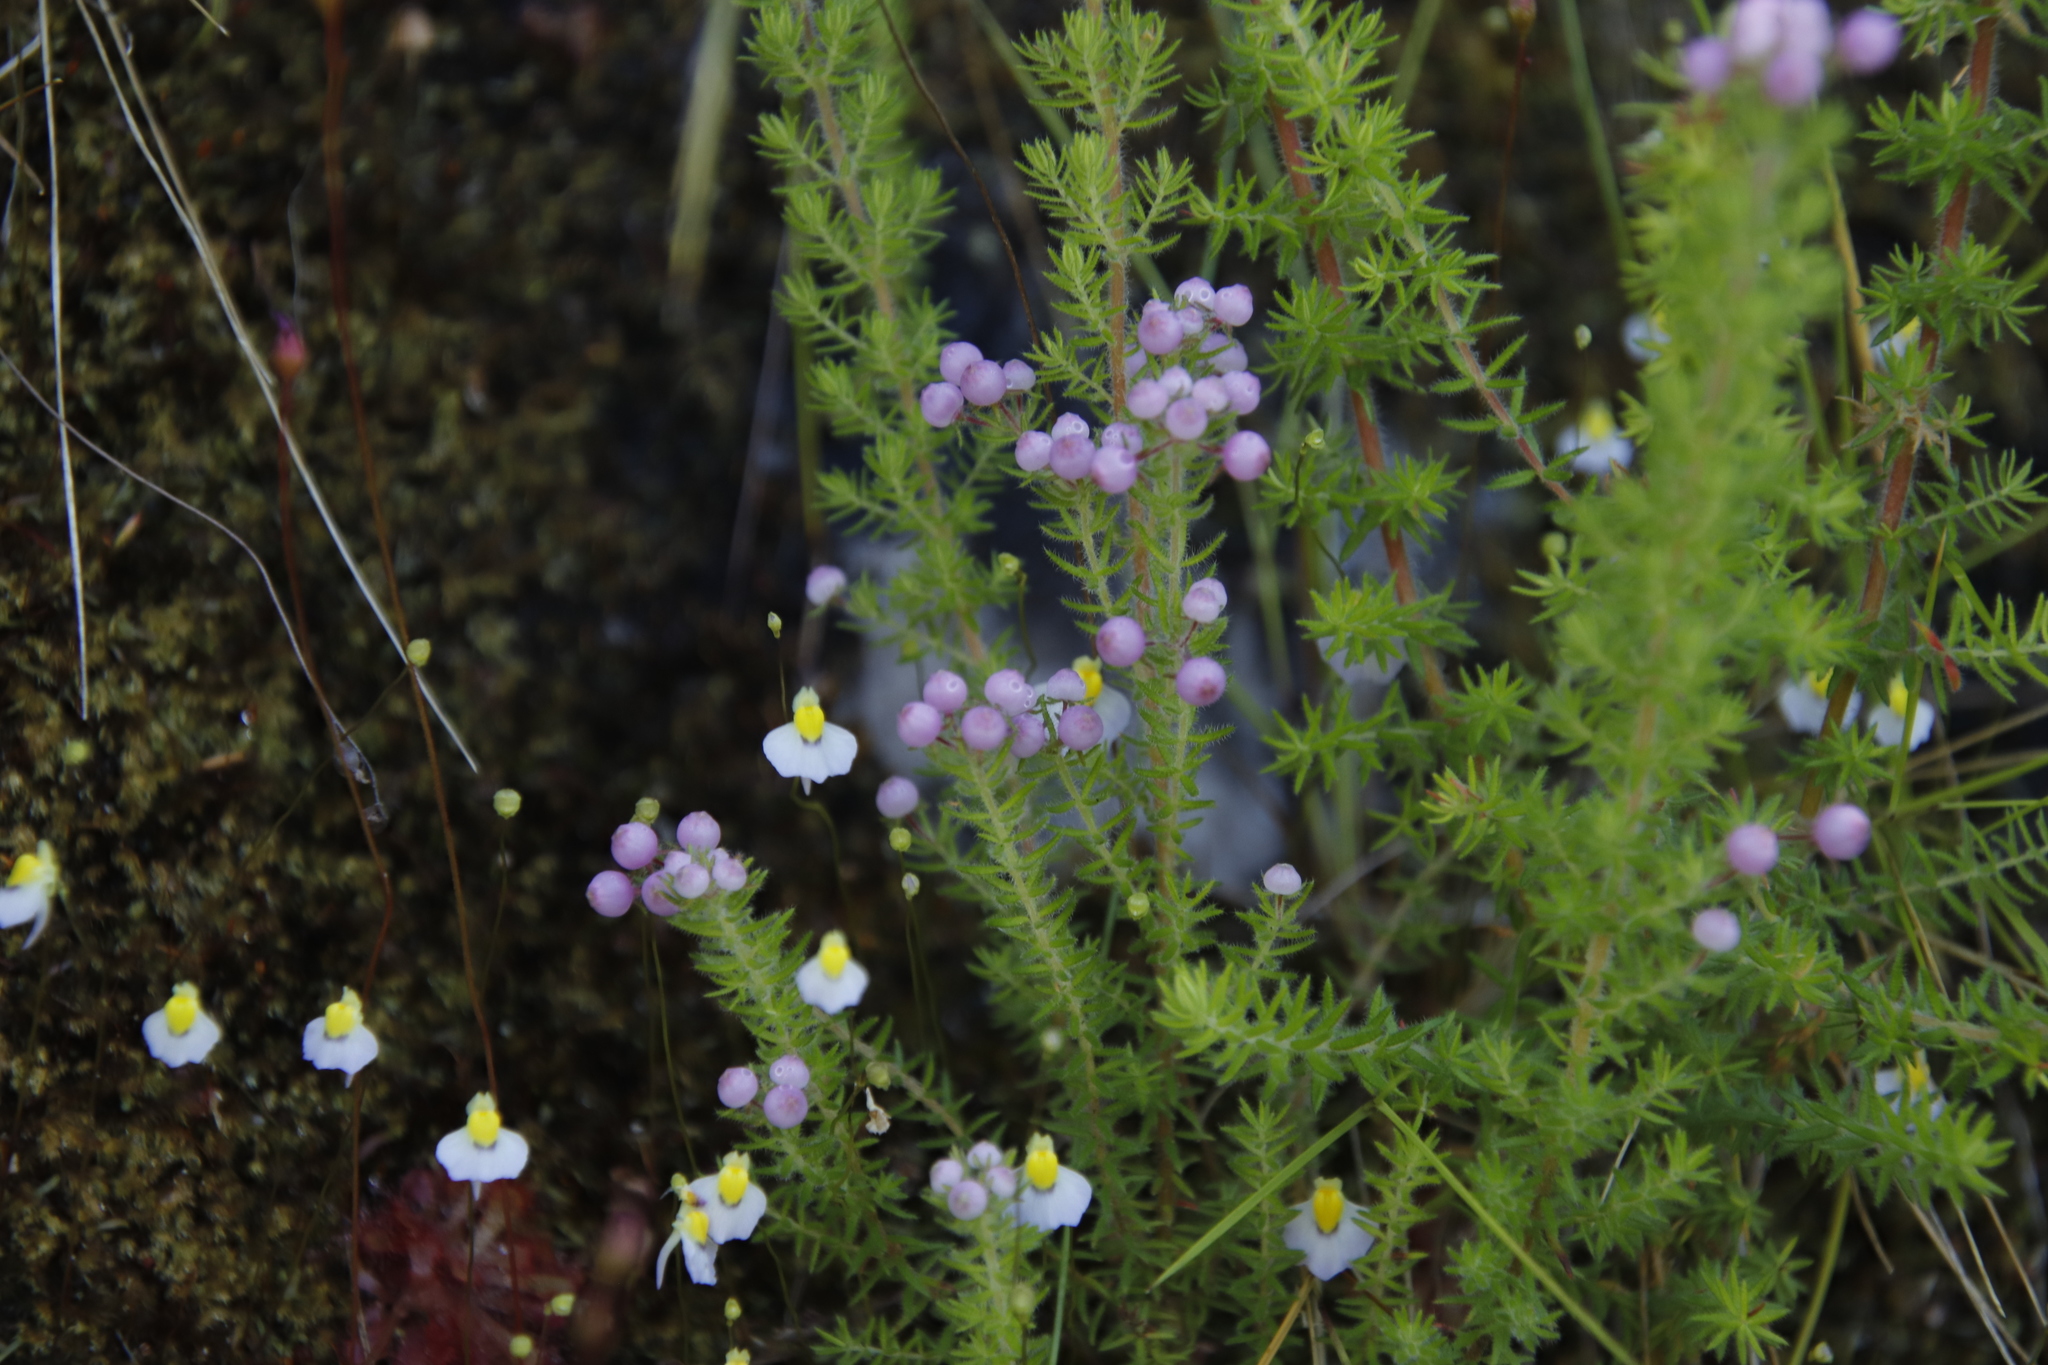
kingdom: Plantae
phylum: Tracheophyta
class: Magnoliopsida
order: Ericales
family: Ericaceae
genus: Erica
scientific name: Erica bergiana
